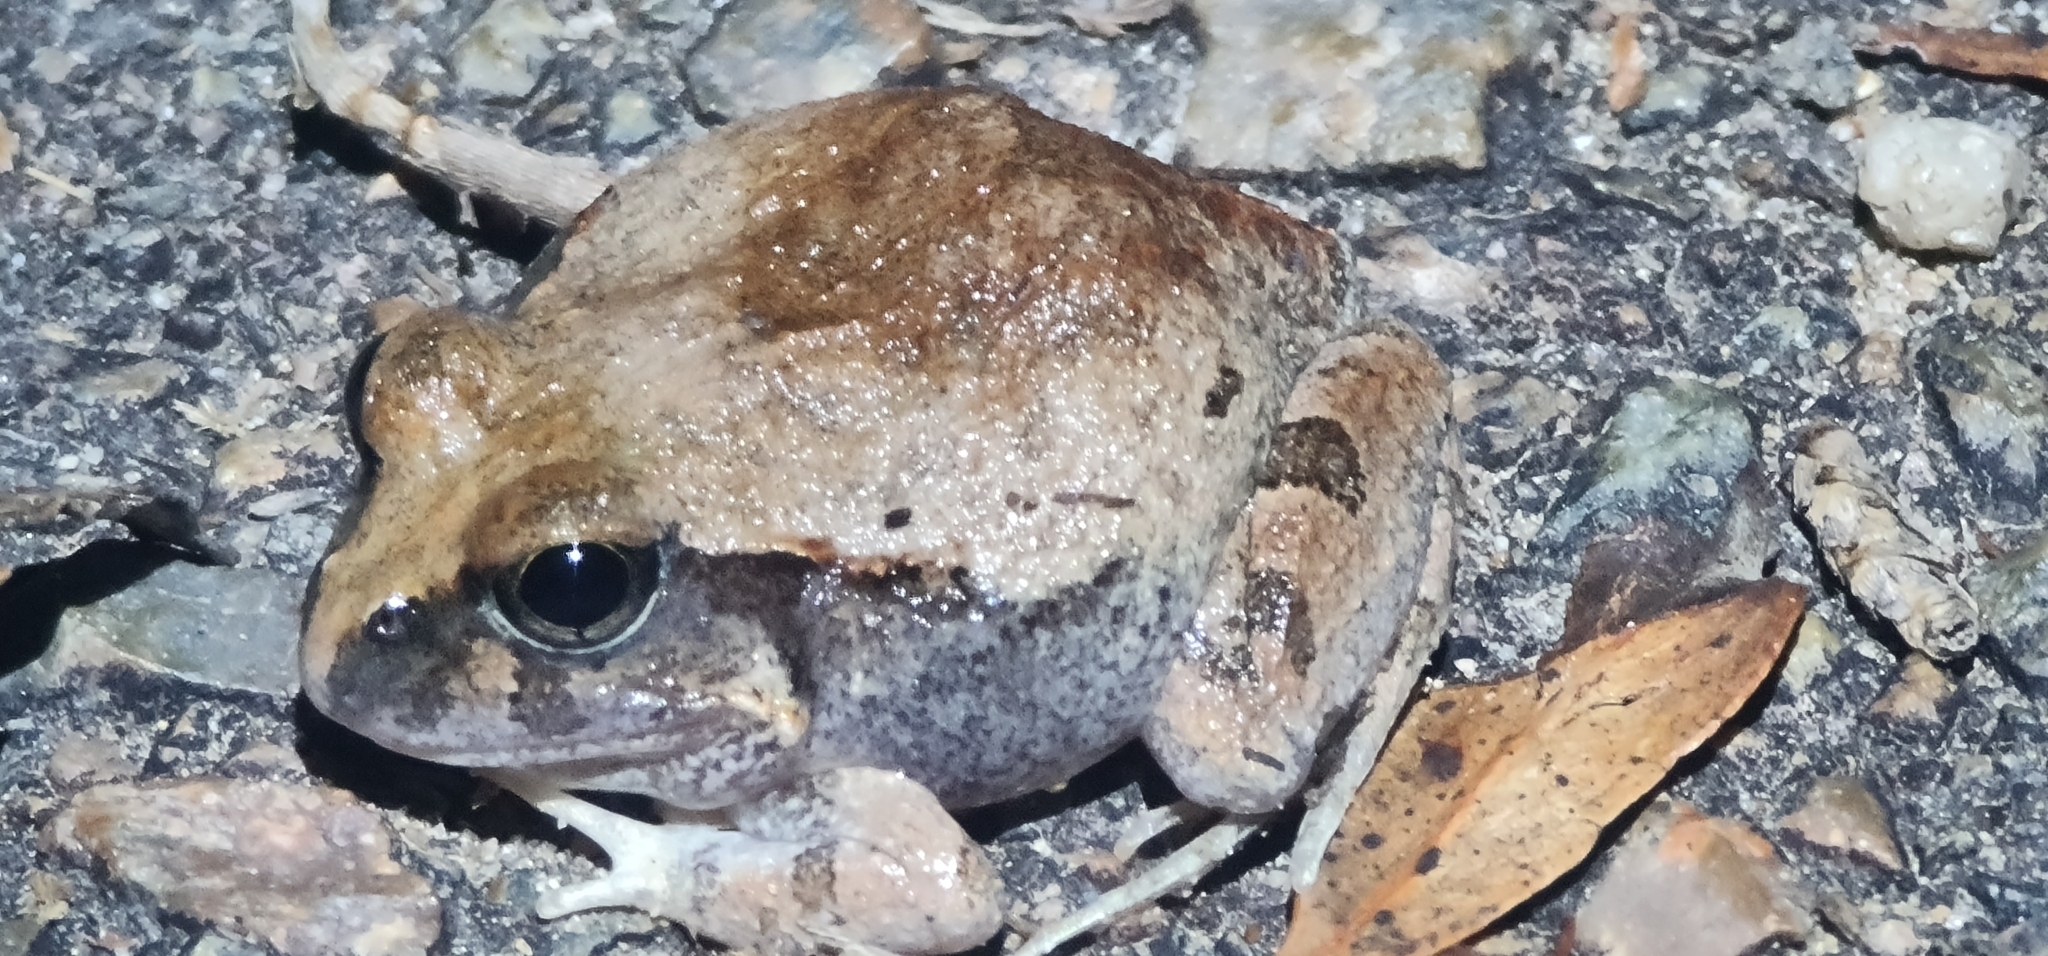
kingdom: Animalia
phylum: Chordata
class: Amphibia
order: Anura
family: Limnodynastidae
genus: Platyplectrum
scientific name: Platyplectrum ornatum
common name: Ornate burrowing frog
